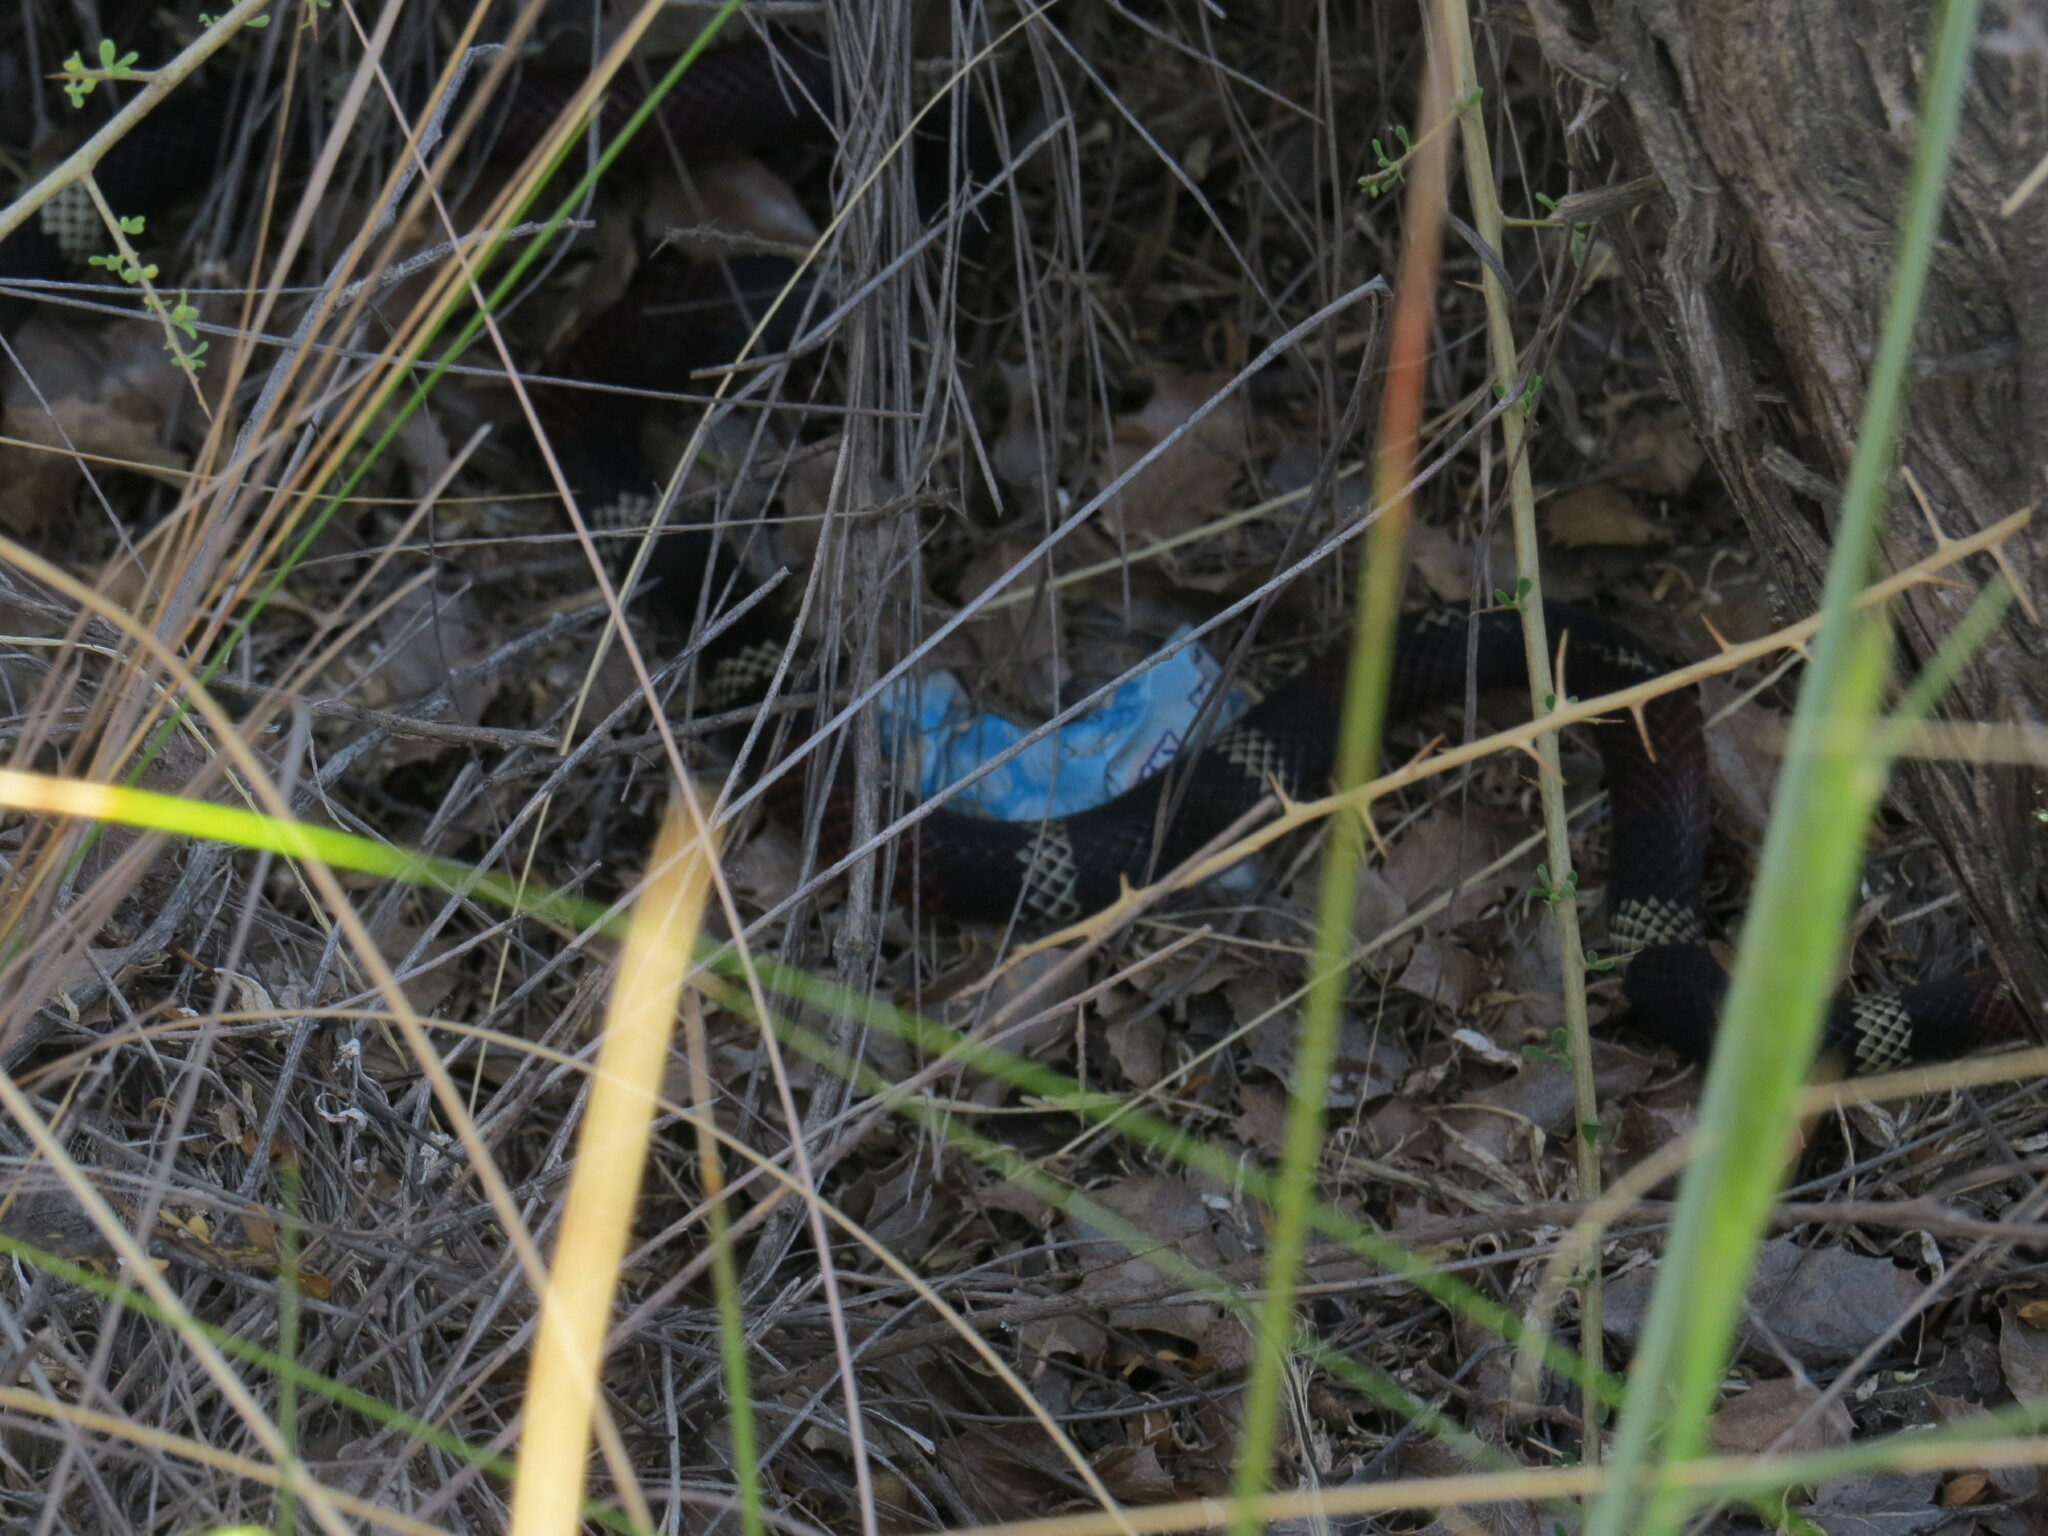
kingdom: Animalia
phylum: Chordata
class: Squamata
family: Elapidae
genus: Micrurus
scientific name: Micrurus pyrrhocryptus
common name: Argentinian coral snake
